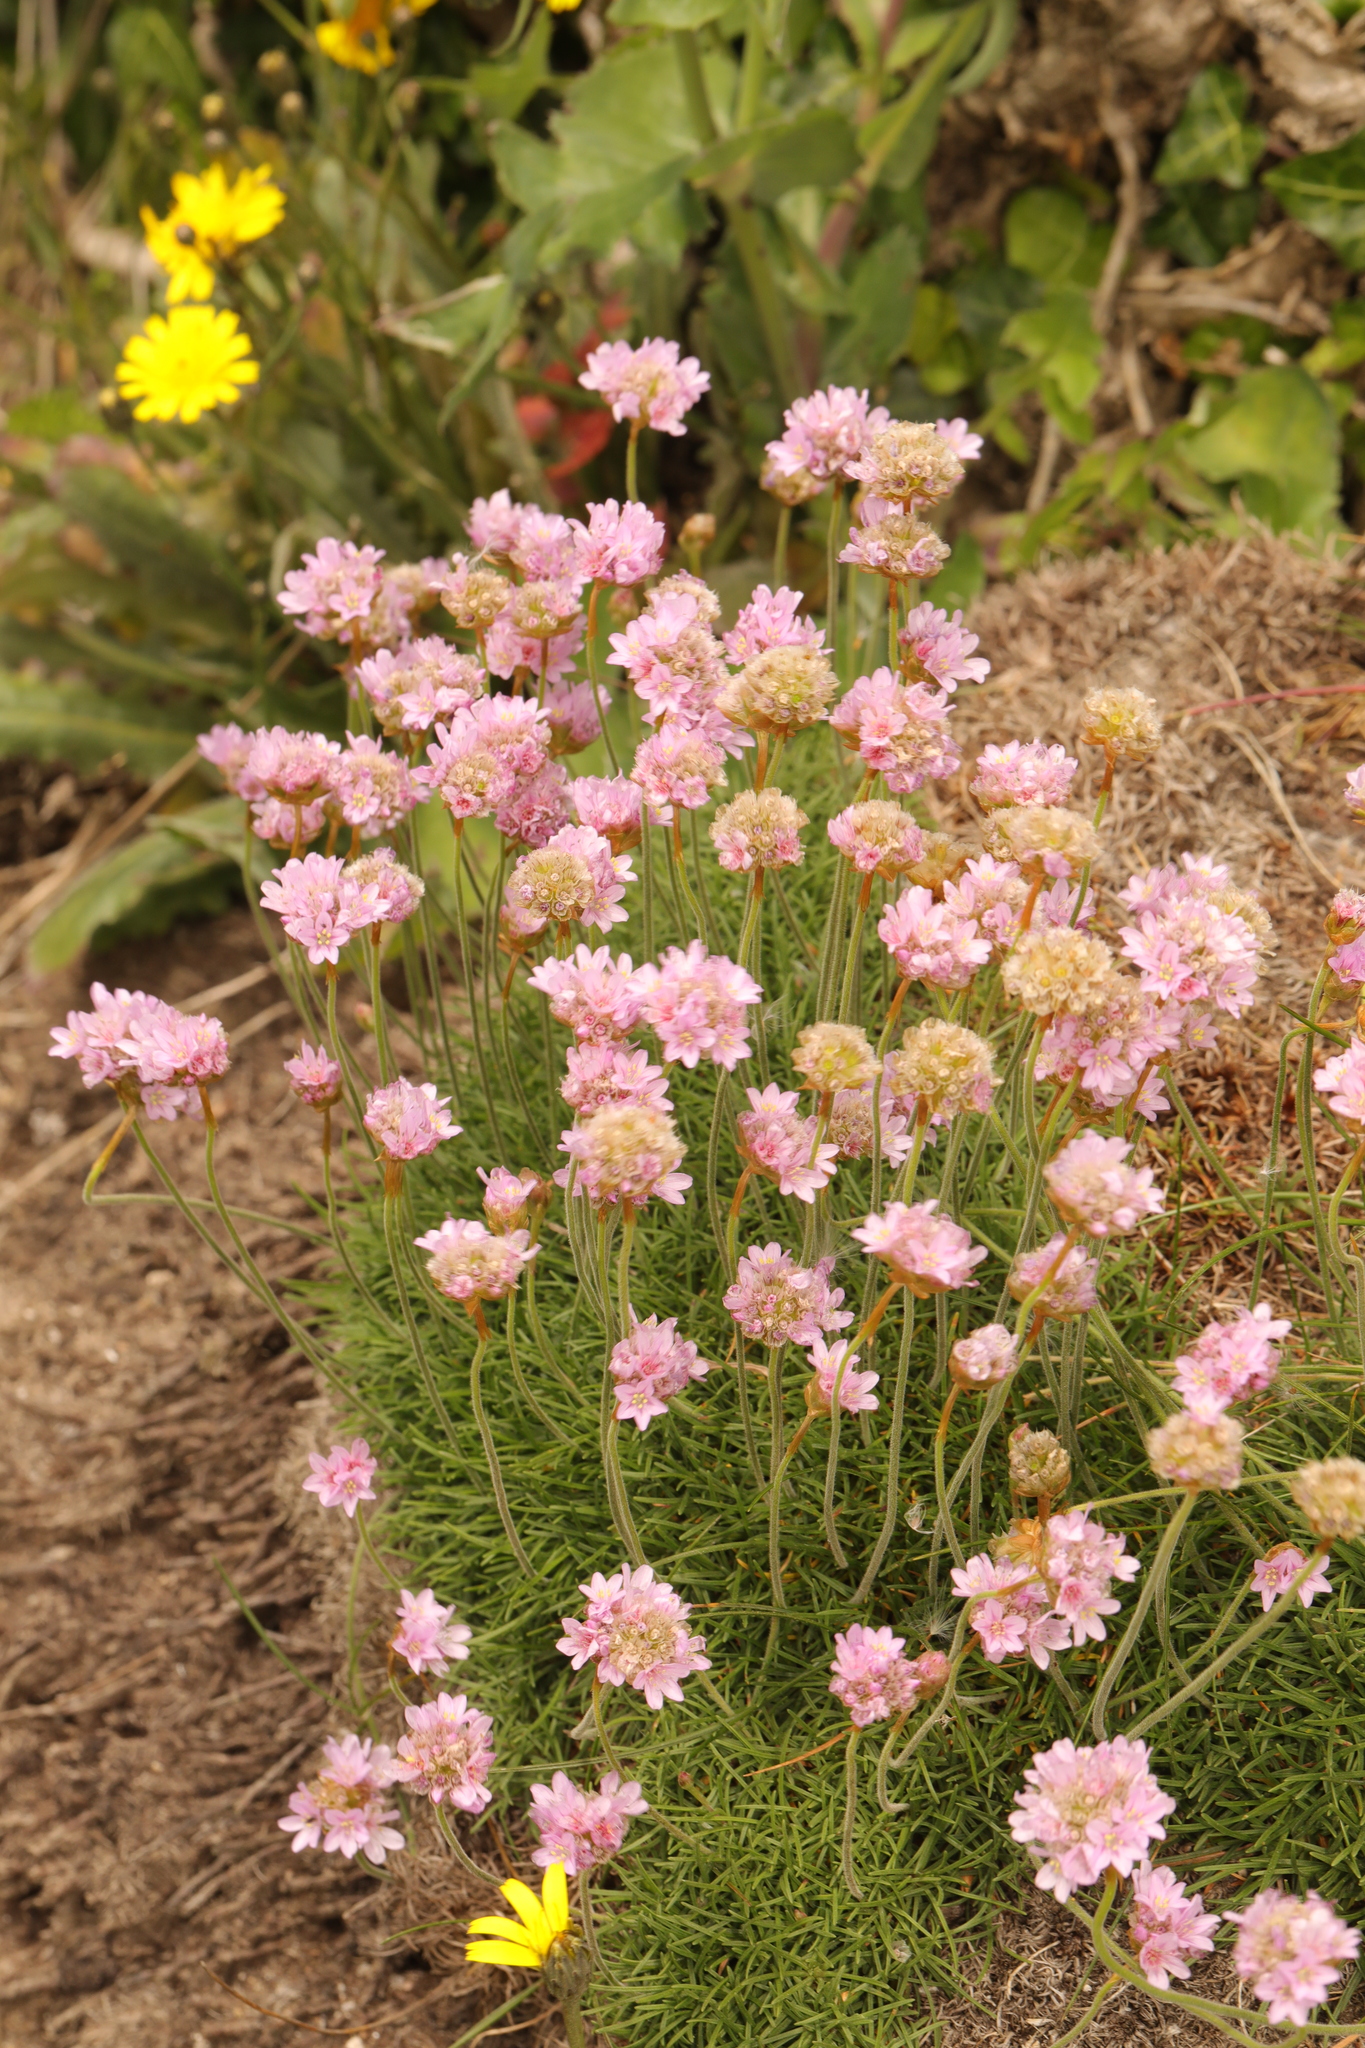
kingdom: Plantae
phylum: Tracheophyta
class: Magnoliopsida
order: Caryophyllales
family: Plumbaginaceae
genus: Armeria
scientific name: Armeria maritima
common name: Thrift
